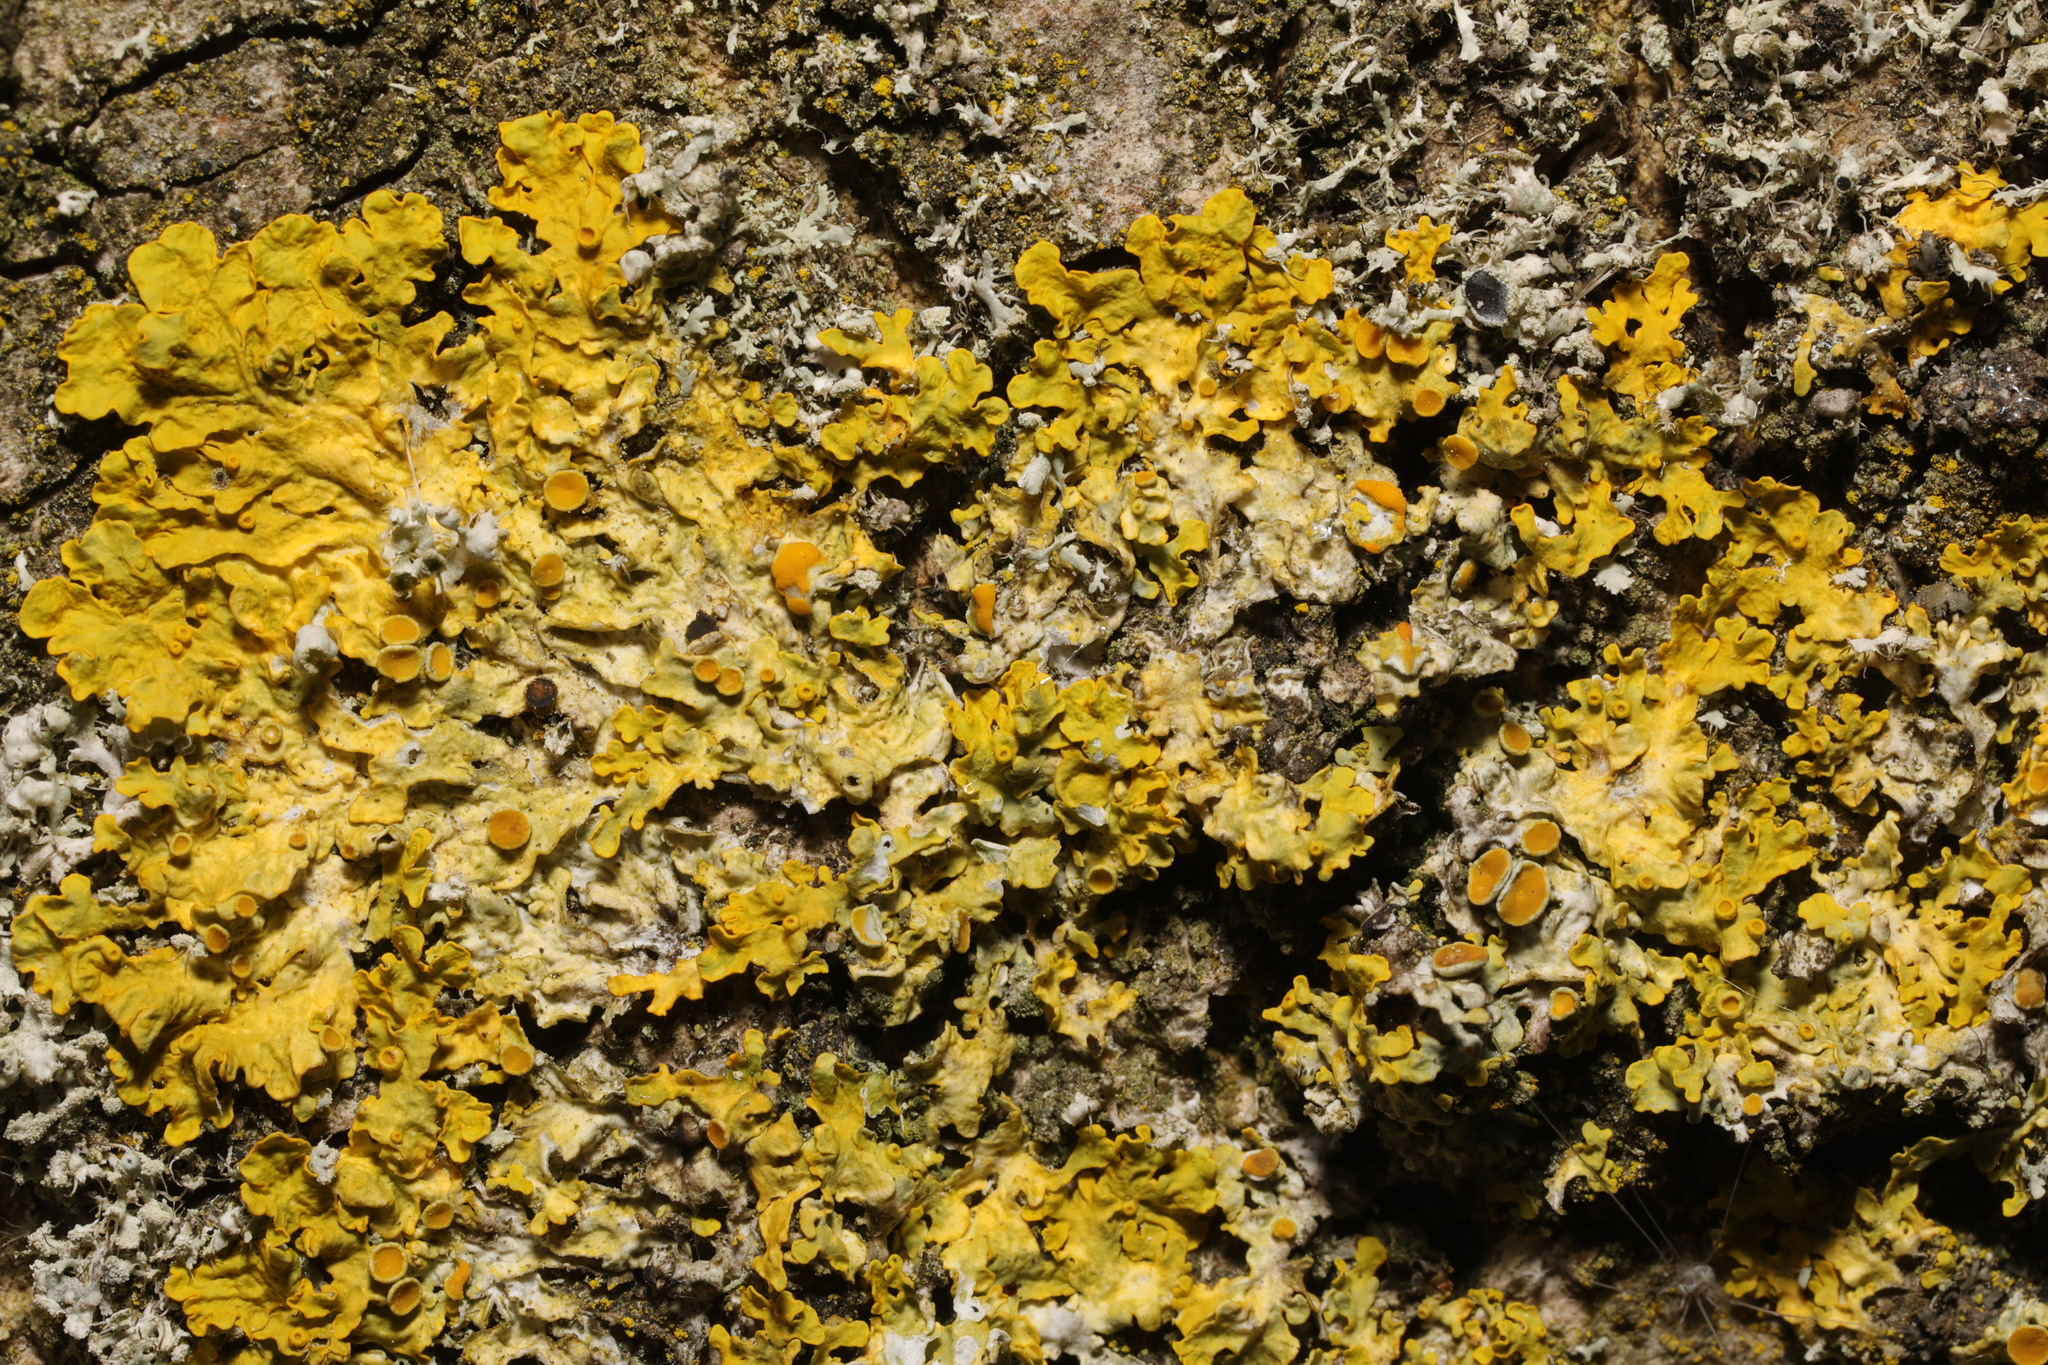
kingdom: Fungi
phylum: Ascomycota
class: Lecanoromycetes
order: Teloschistales
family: Teloschistaceae
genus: Xanthoria
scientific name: Xanthoria parietina
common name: Common orange lichen
